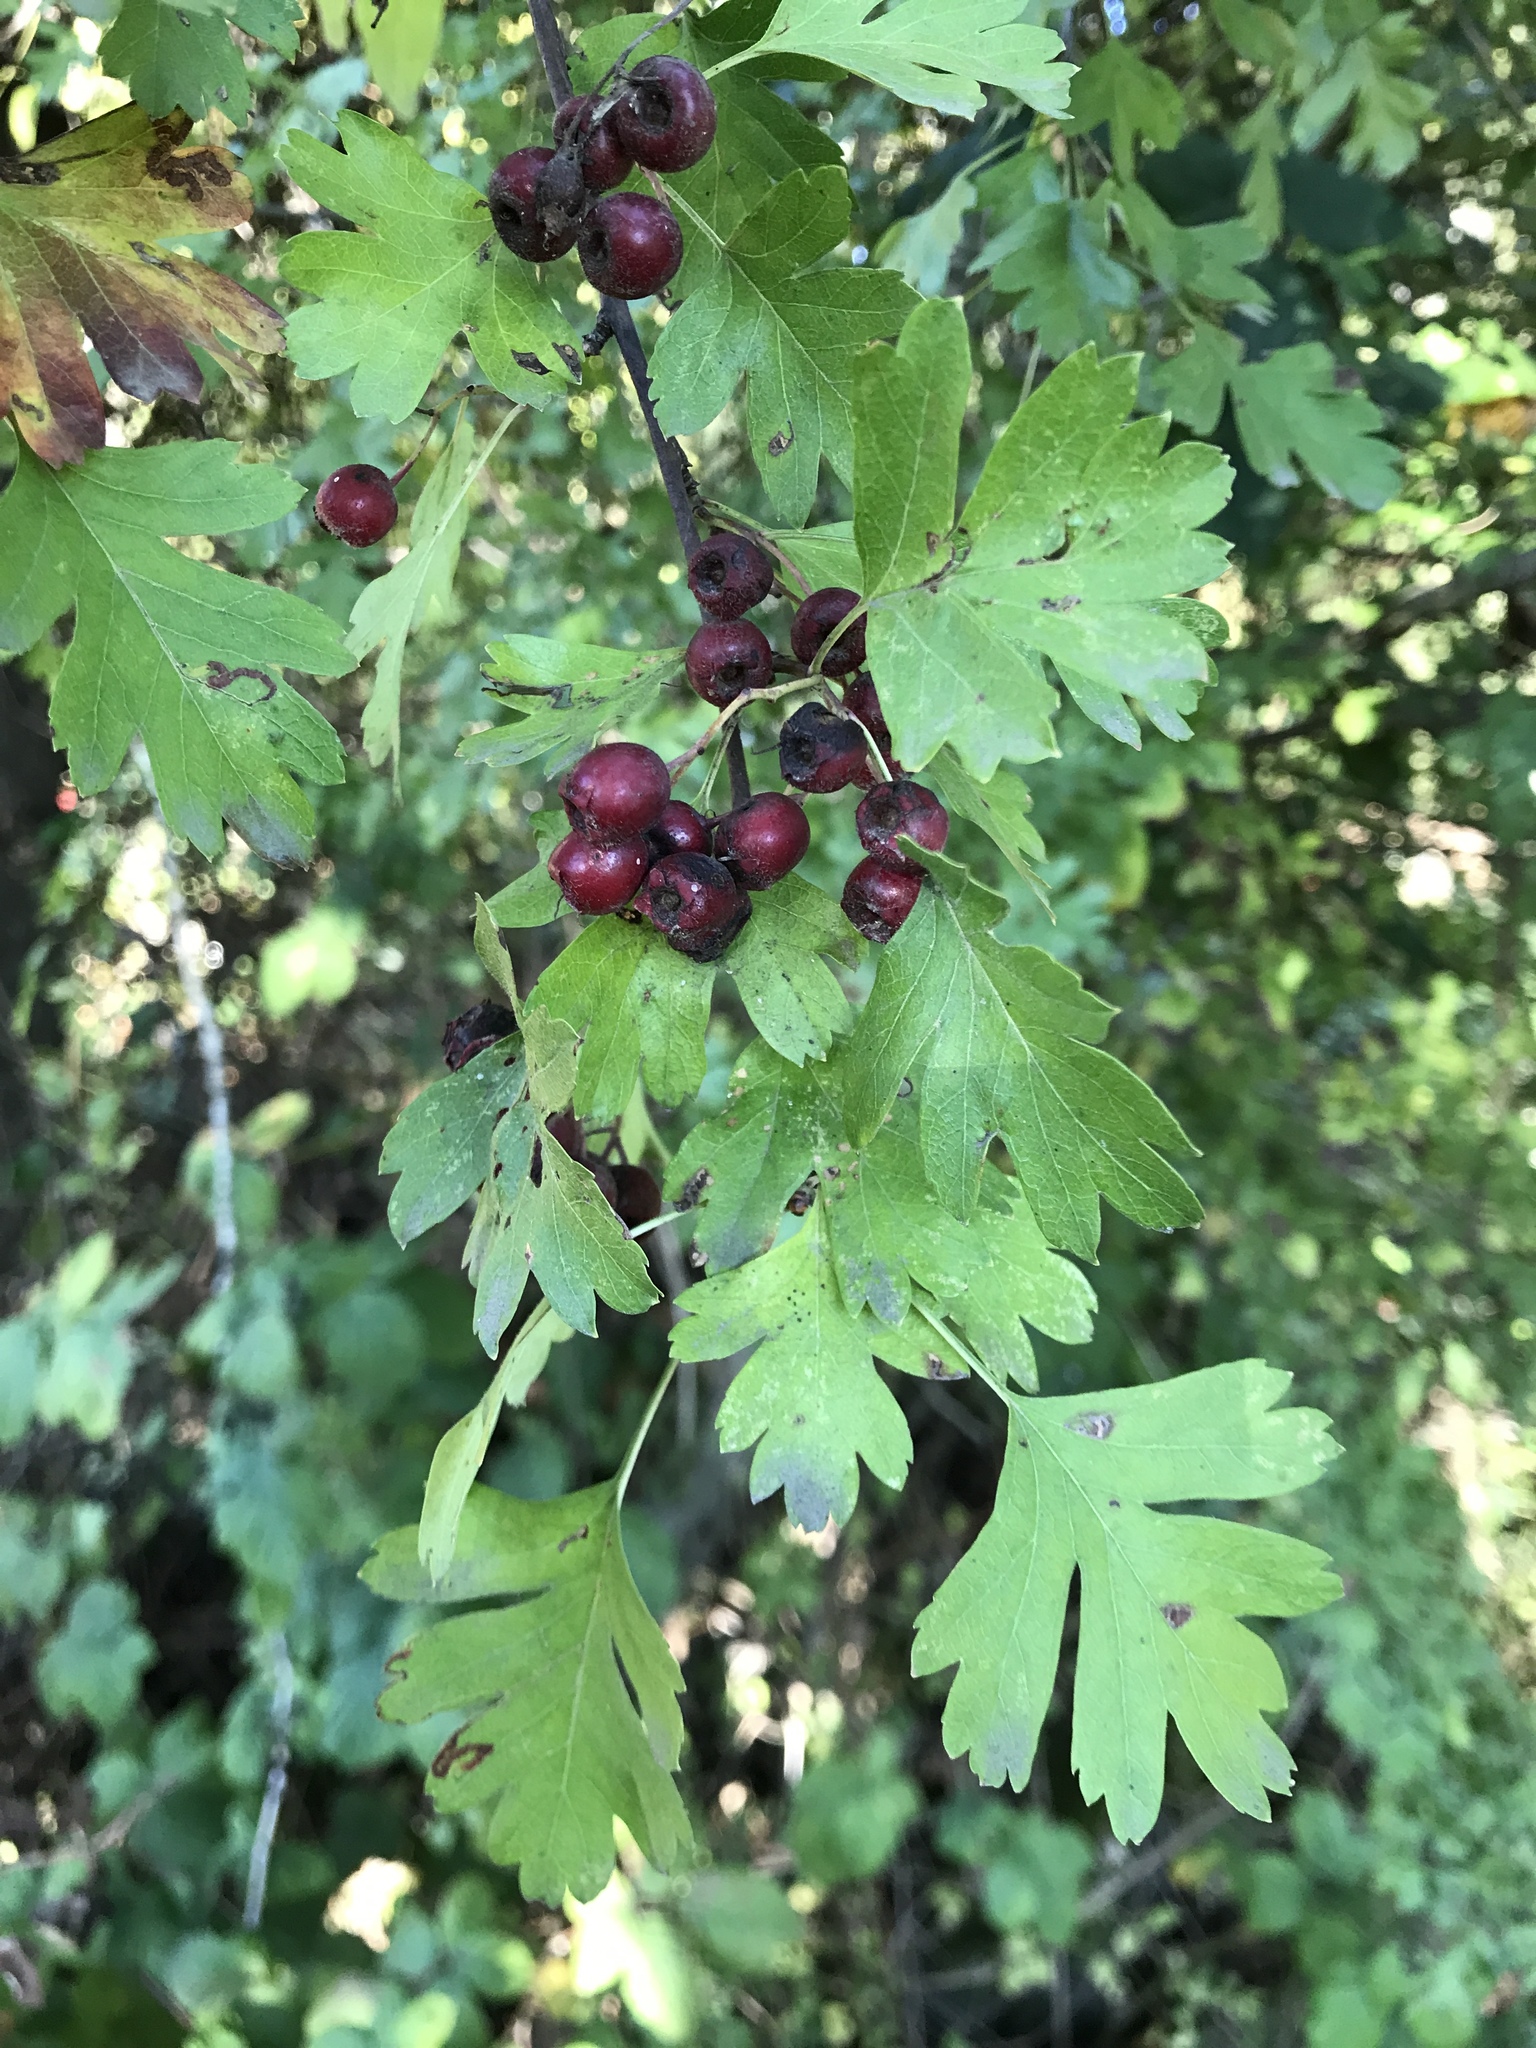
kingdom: Plantae
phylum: Tracheophyta
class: Magnoliopsida
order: Rosales
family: Rosaceae
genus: Crataegus
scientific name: Crataegus monogyna
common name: Hawthorn
